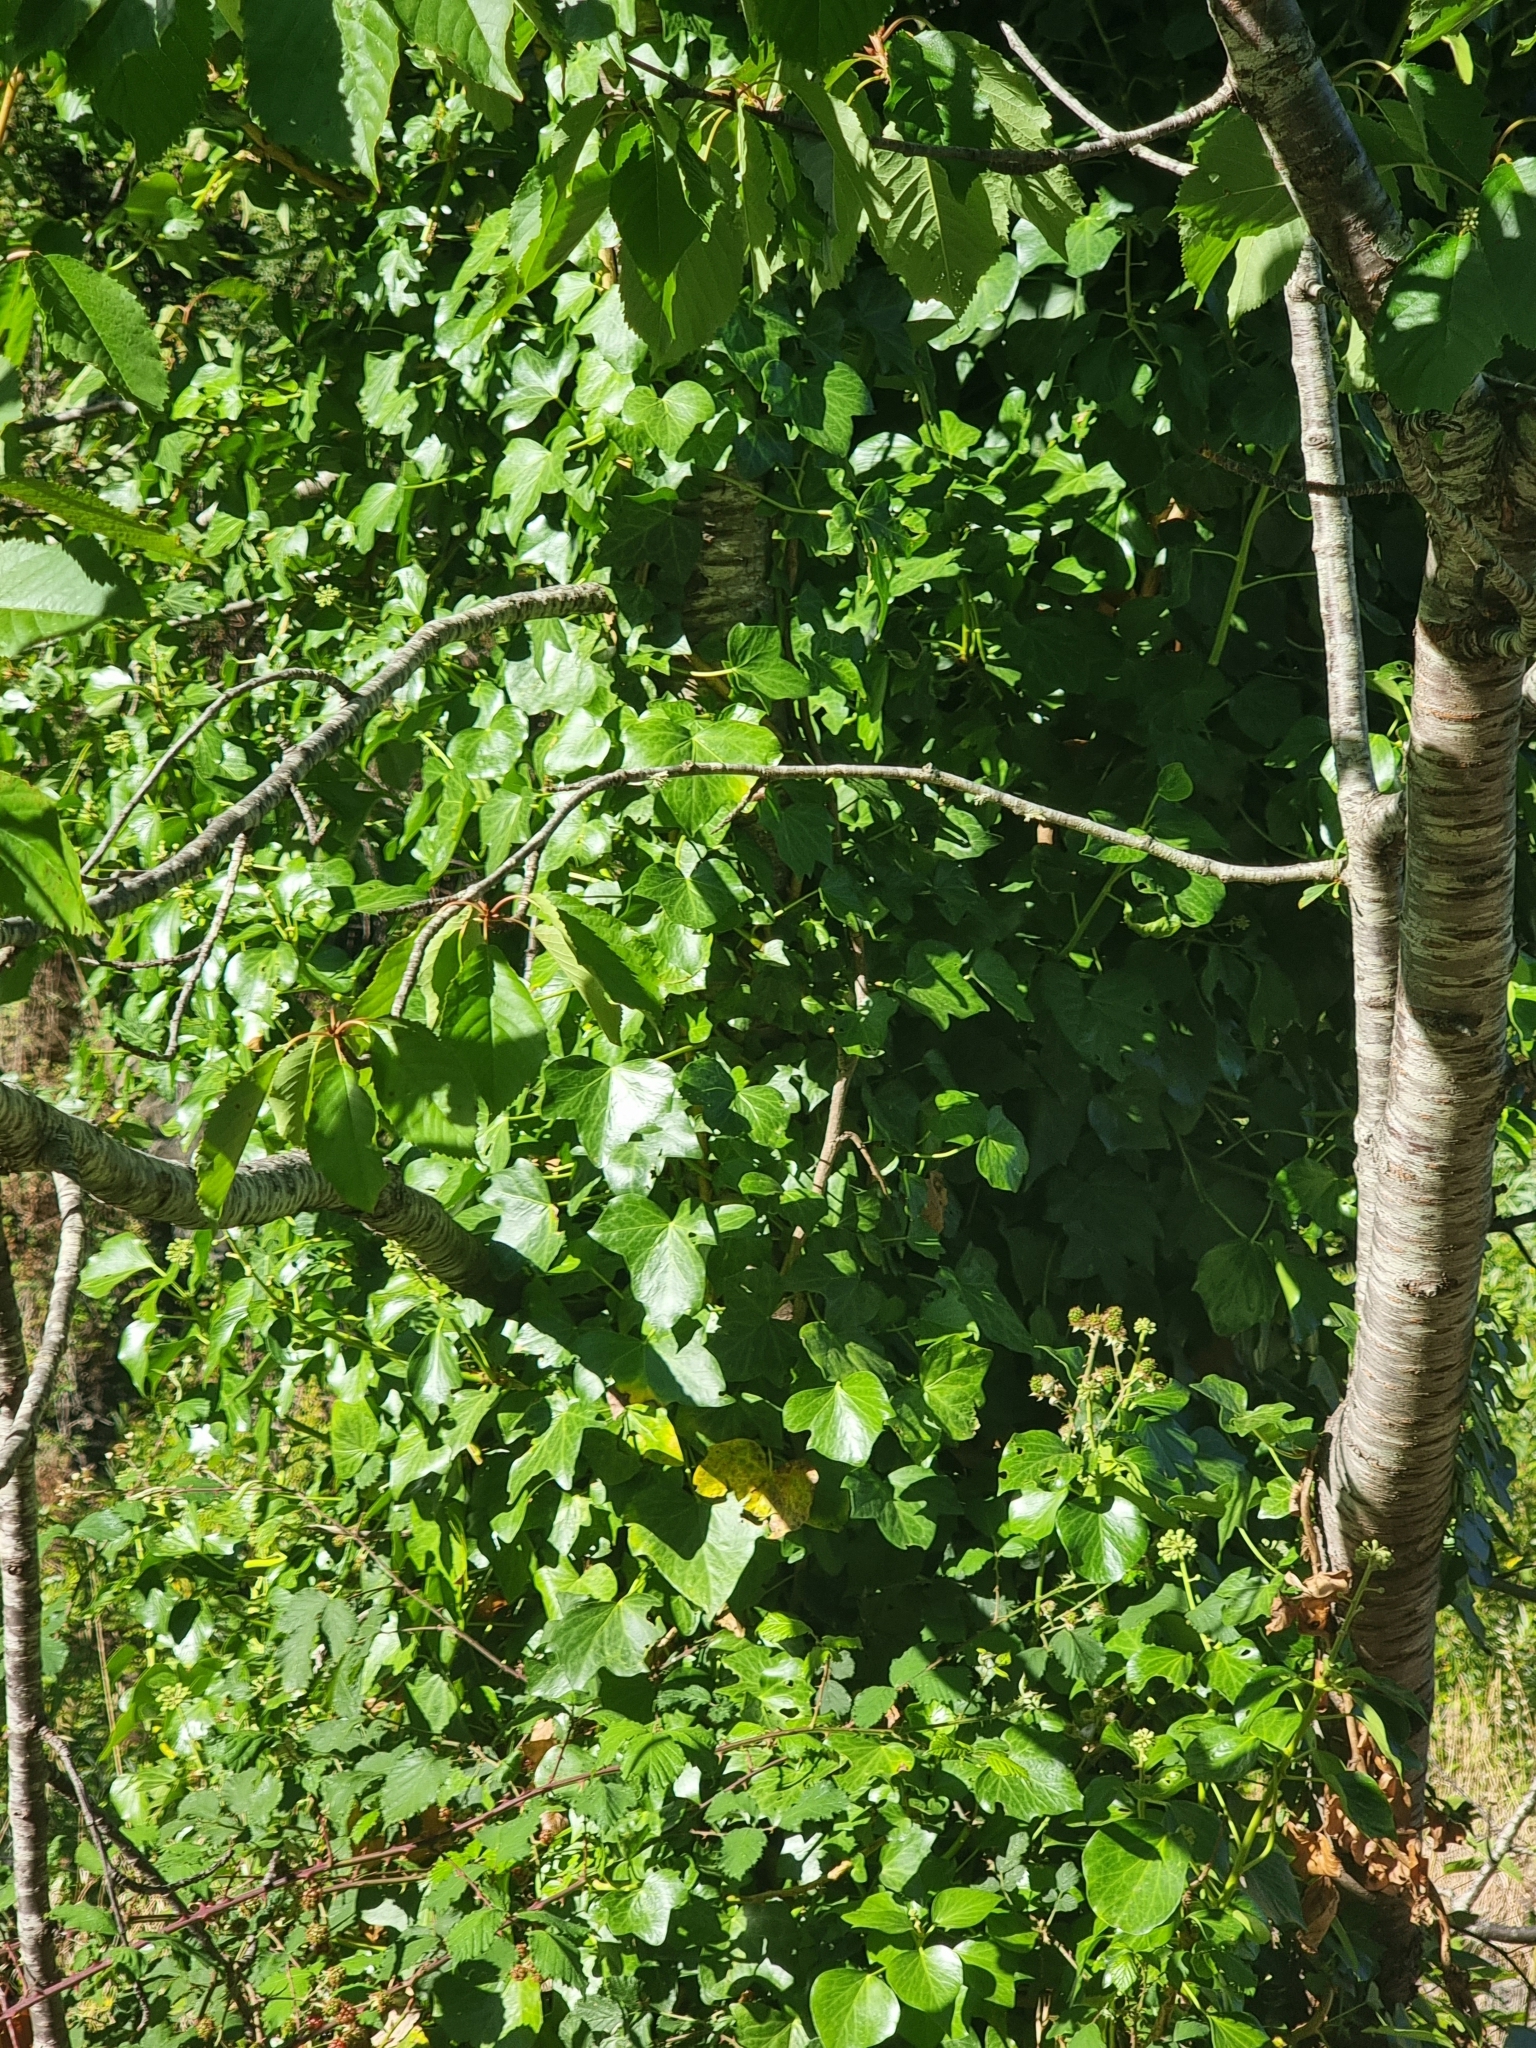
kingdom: Plantae
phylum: Tracheophyta
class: Magnoliopsida
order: Apiales
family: Araliaceae
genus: Hedera
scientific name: Hedera maderensis
